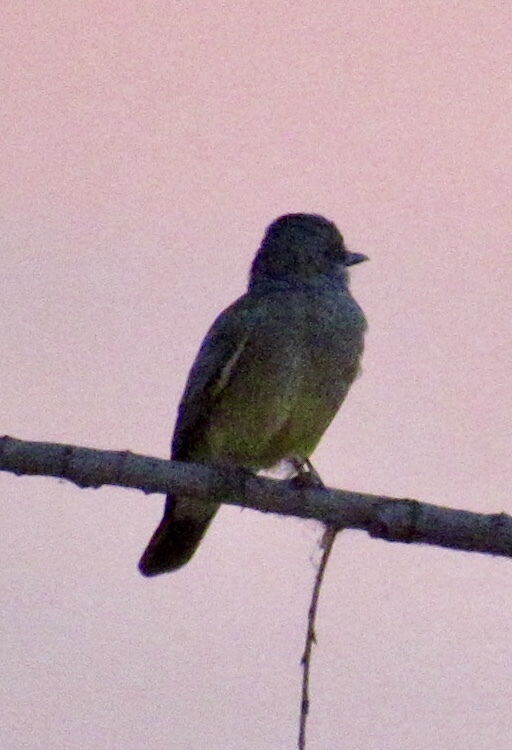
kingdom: Animalia
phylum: Chordata
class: Aves
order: Passeriformes
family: Tyrannidae
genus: Tyrannus
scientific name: Tyrannus vociferans
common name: Cassin's kingbird
